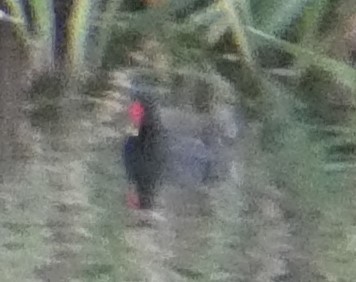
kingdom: Animalia
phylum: Chordata
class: Aves
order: Gruiformes
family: Rallidae
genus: Gallinula
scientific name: Gallinula chloropus
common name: Common moorhen
